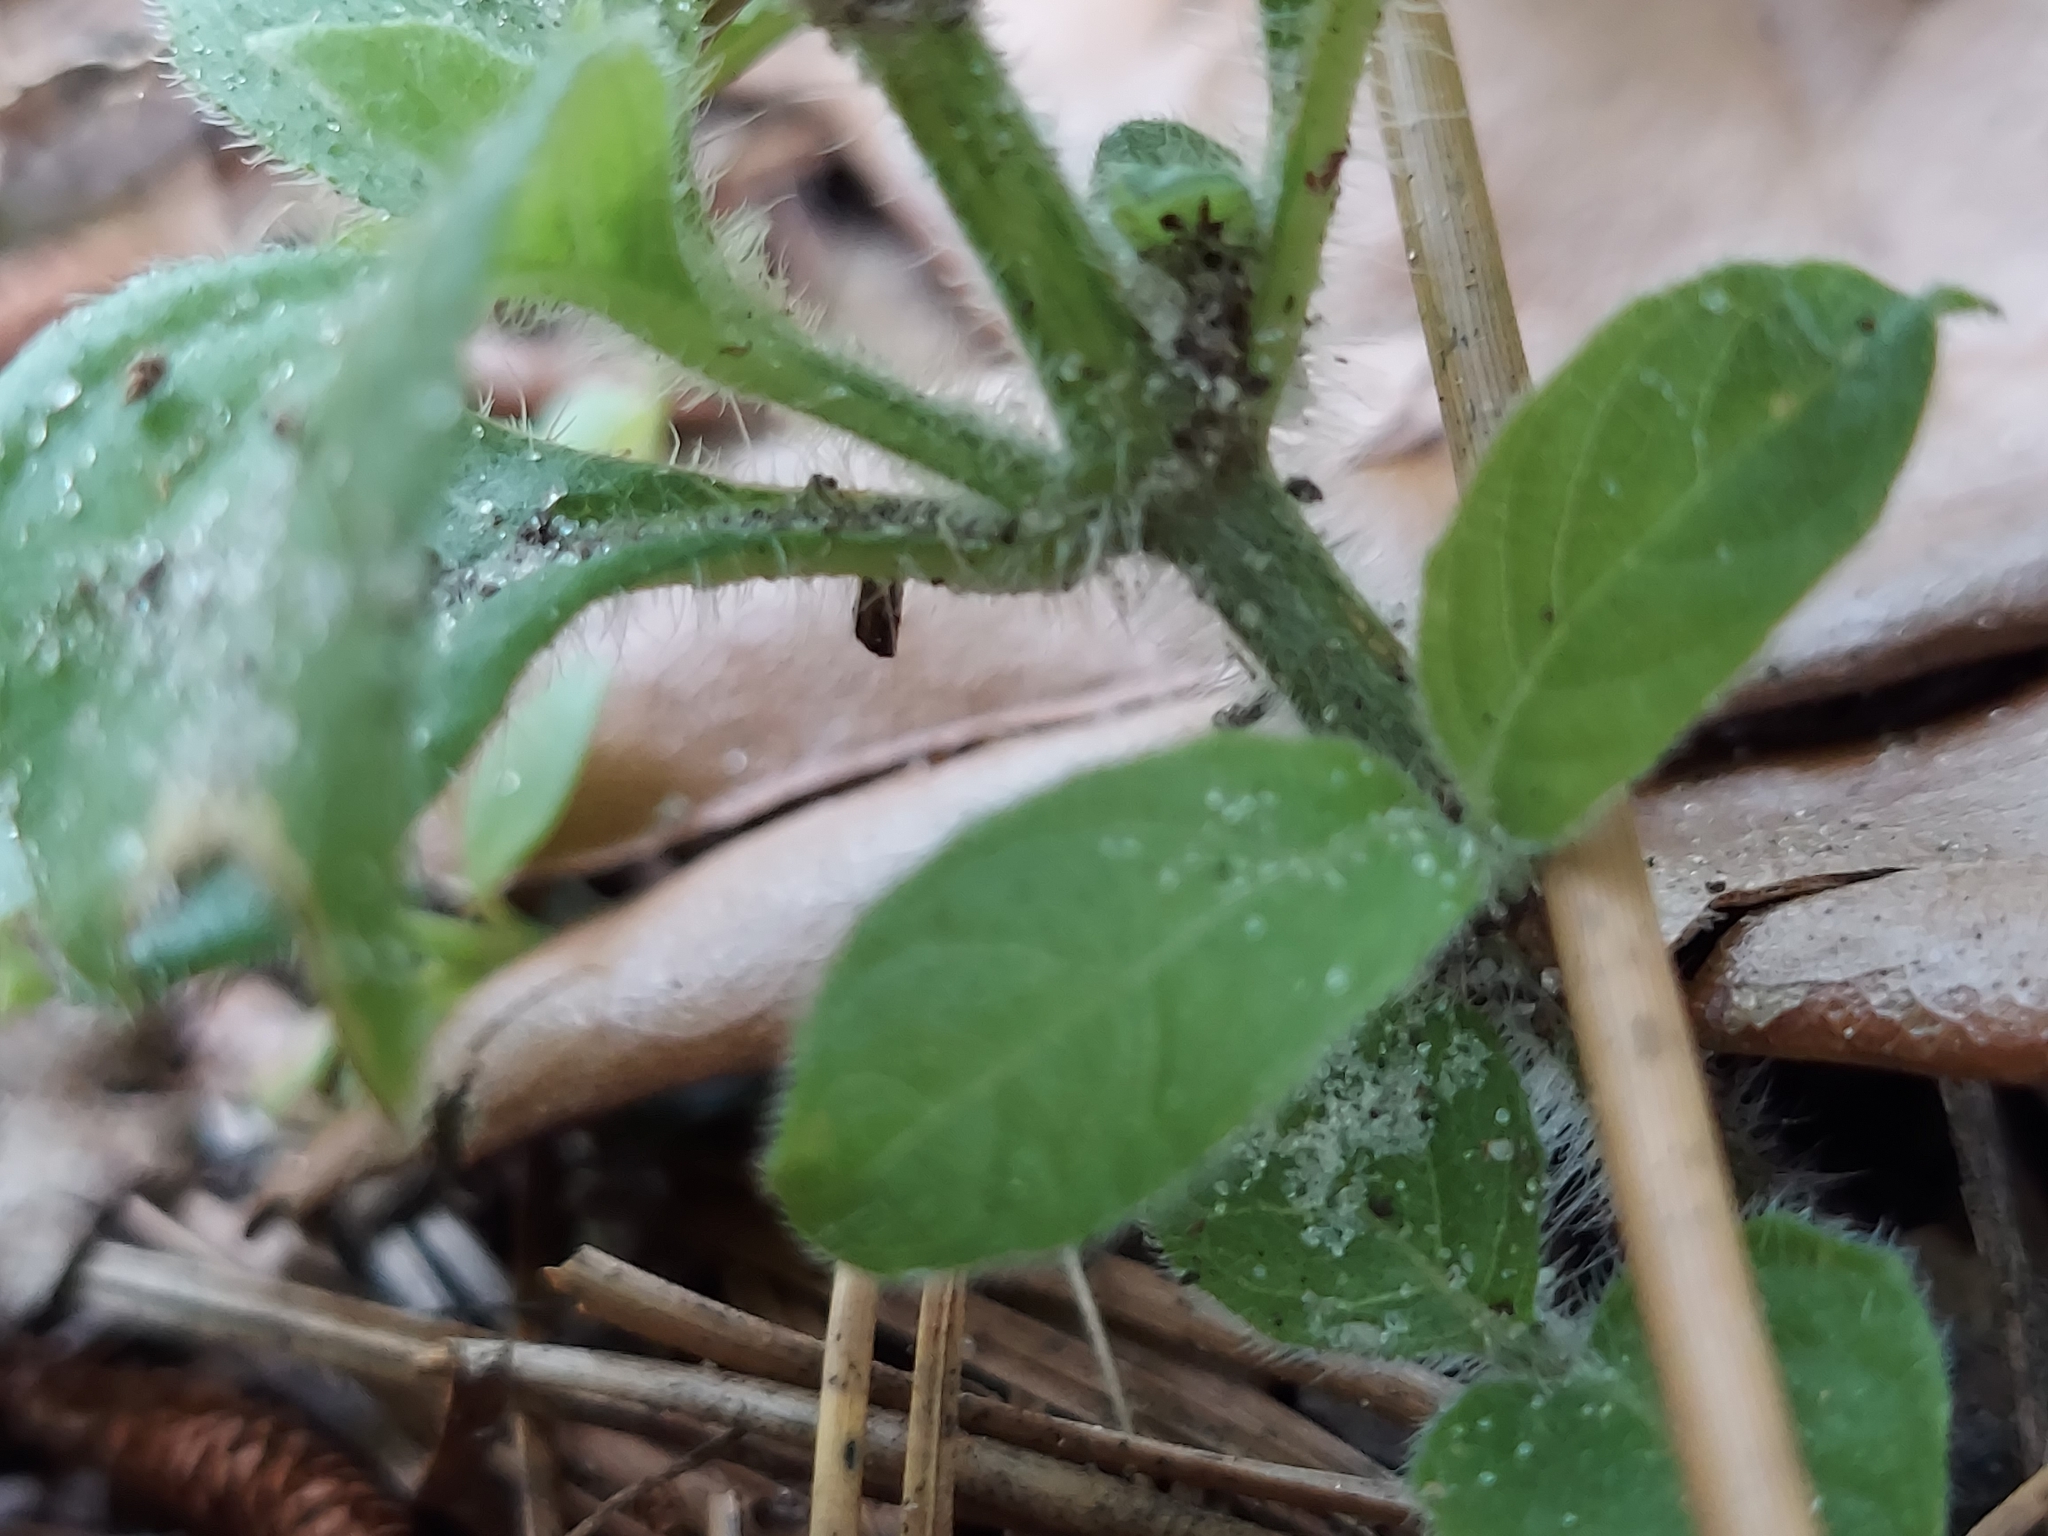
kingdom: Plantae
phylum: Tracheophyta
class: Magnoliopsida
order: Lamiales
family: Acanthaceae
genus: Ruellia
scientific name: Ruellia caroliniensis
